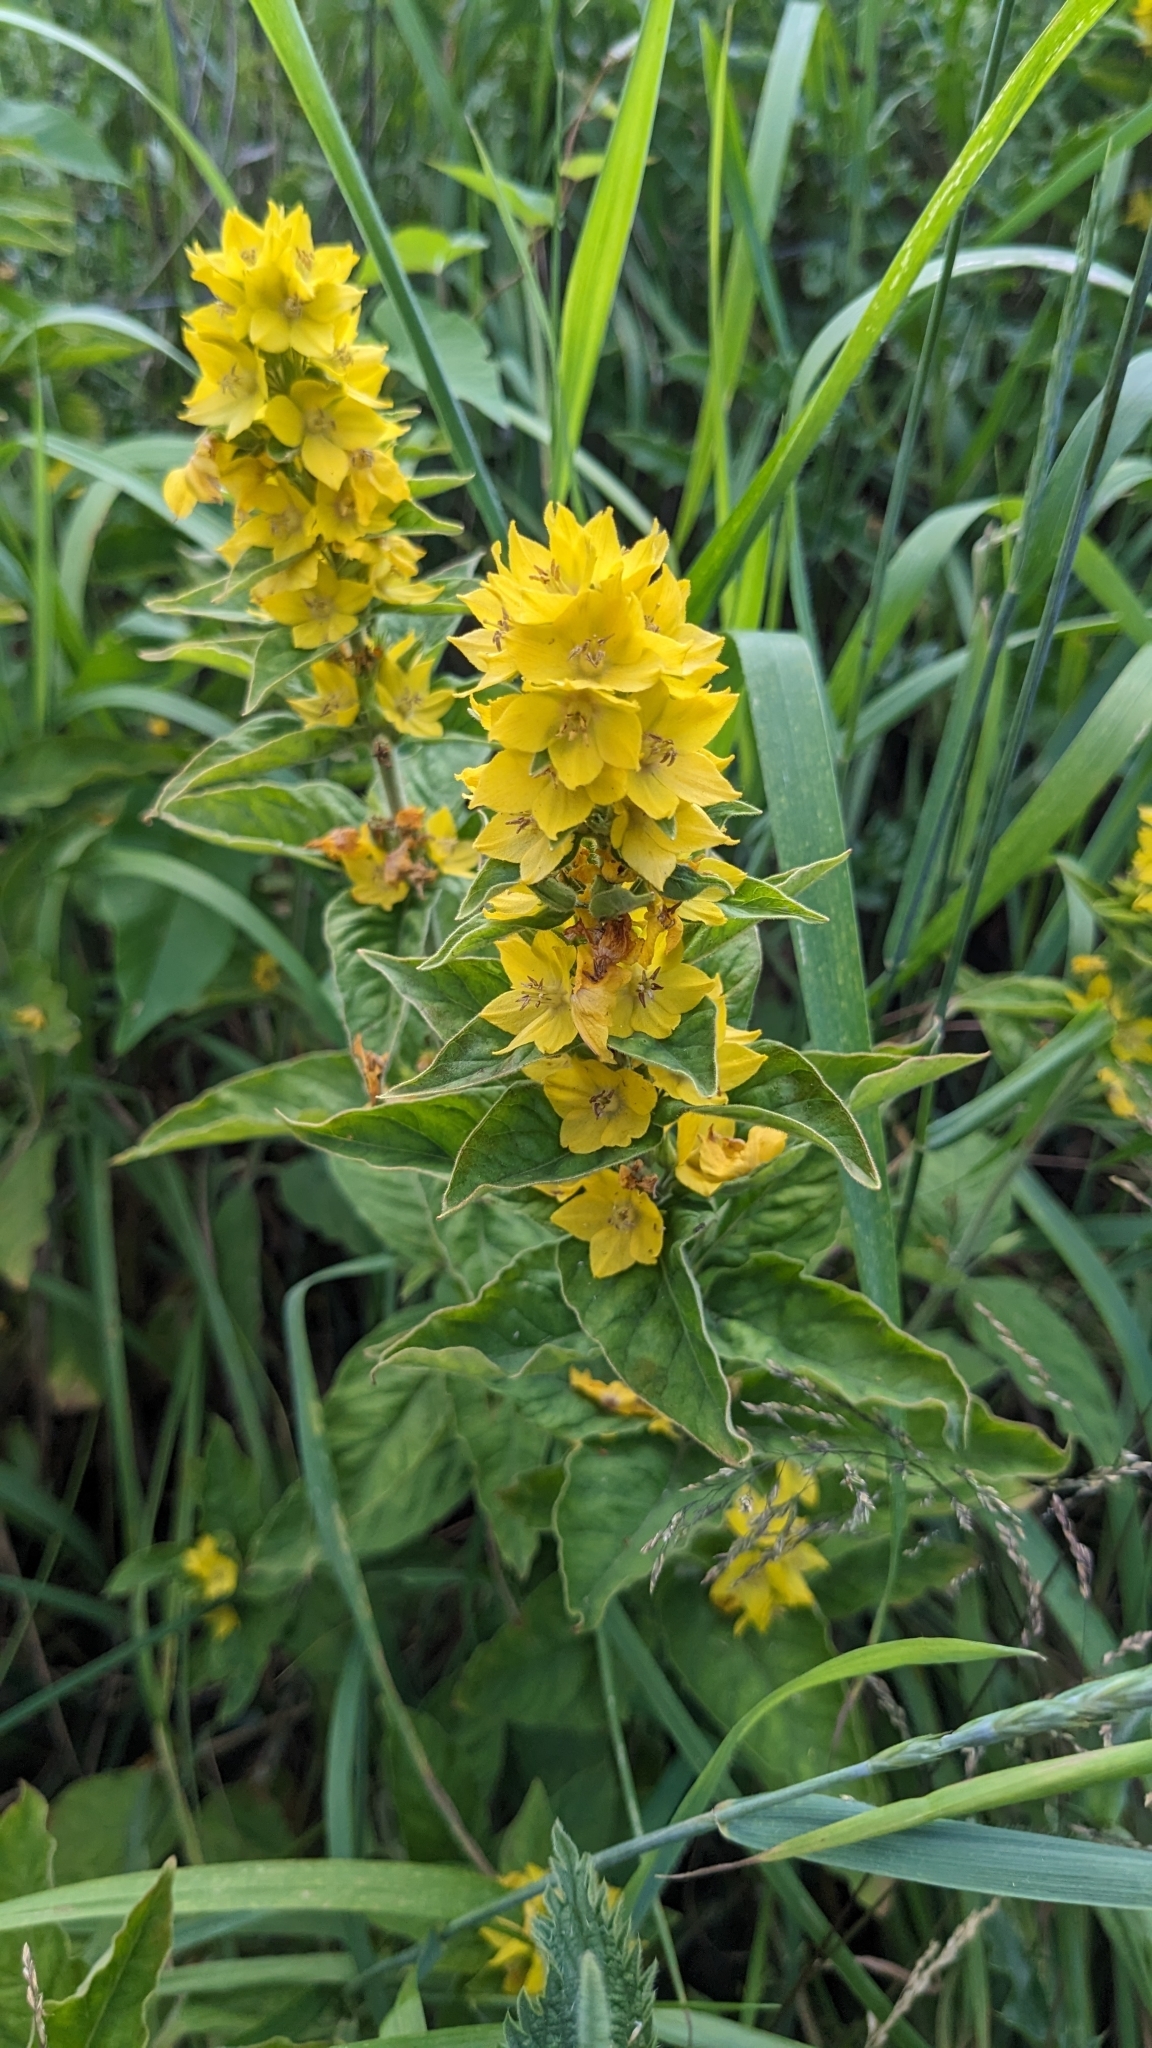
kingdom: Plantae
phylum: Tracheophyta
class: Magnoliopsida
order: Ericales
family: Primulaceae
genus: Lysimachia
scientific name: Lysimachia punctata
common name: Dotted loosestrife
